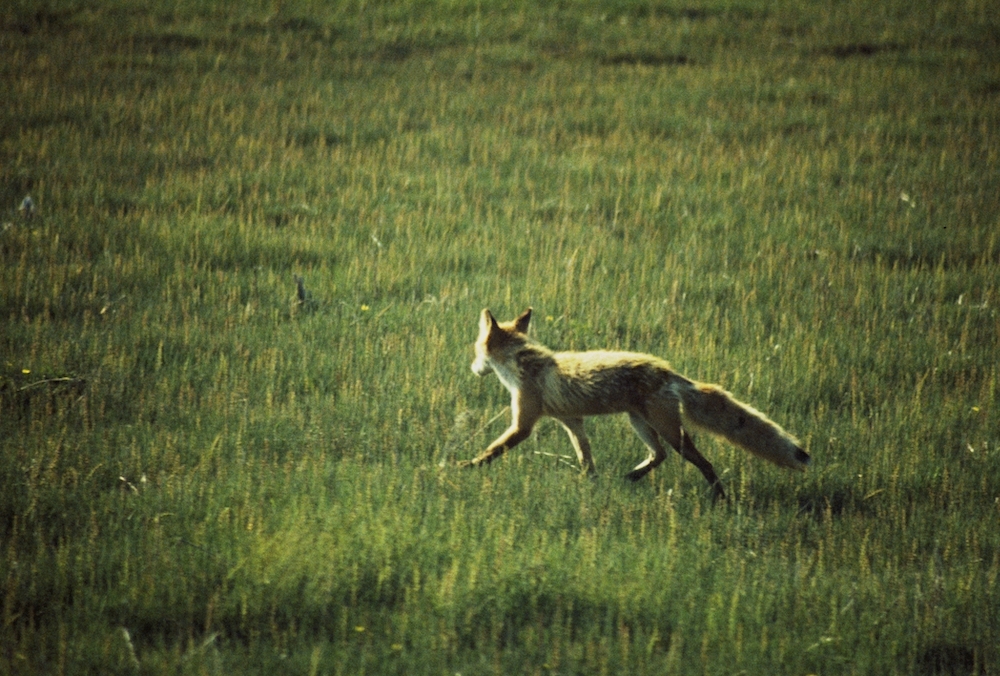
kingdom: Animalia
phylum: Chordata
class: Mammalia
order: Carnivora
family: Canidae
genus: Vulpes
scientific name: Vulpes vulpes
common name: Red fox
